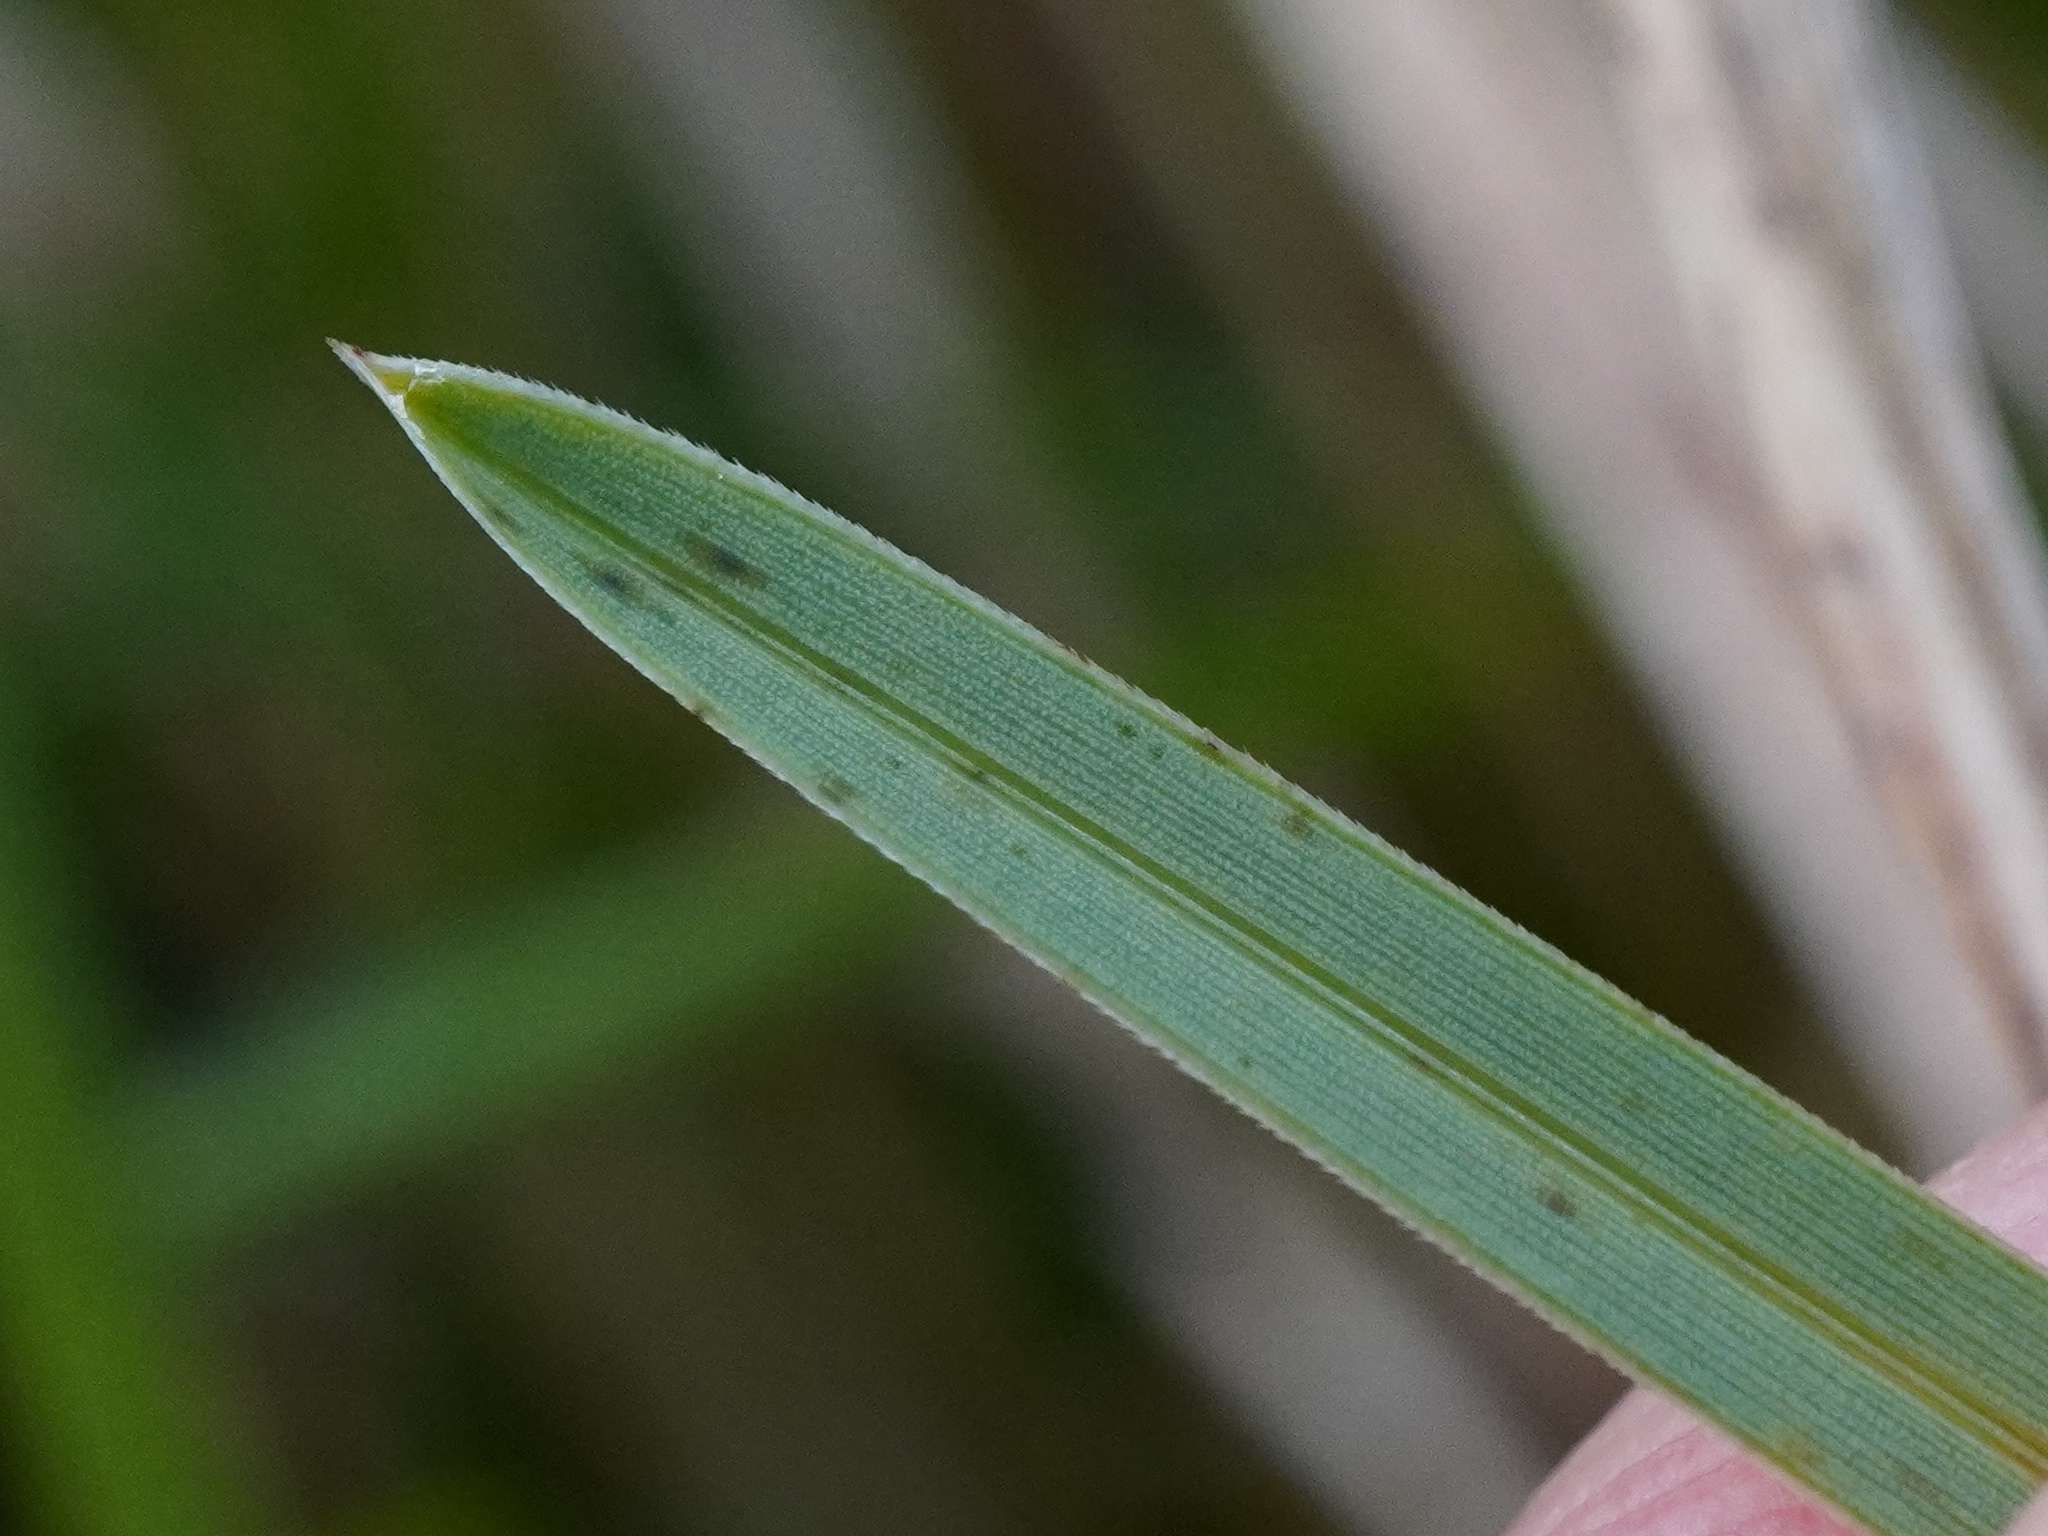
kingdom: Plantae
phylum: Tracheophyta
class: Liliopsida
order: Poales
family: Poaceae
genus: Sesleria
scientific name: Sesleria caerulea
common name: Blue moor-grass
